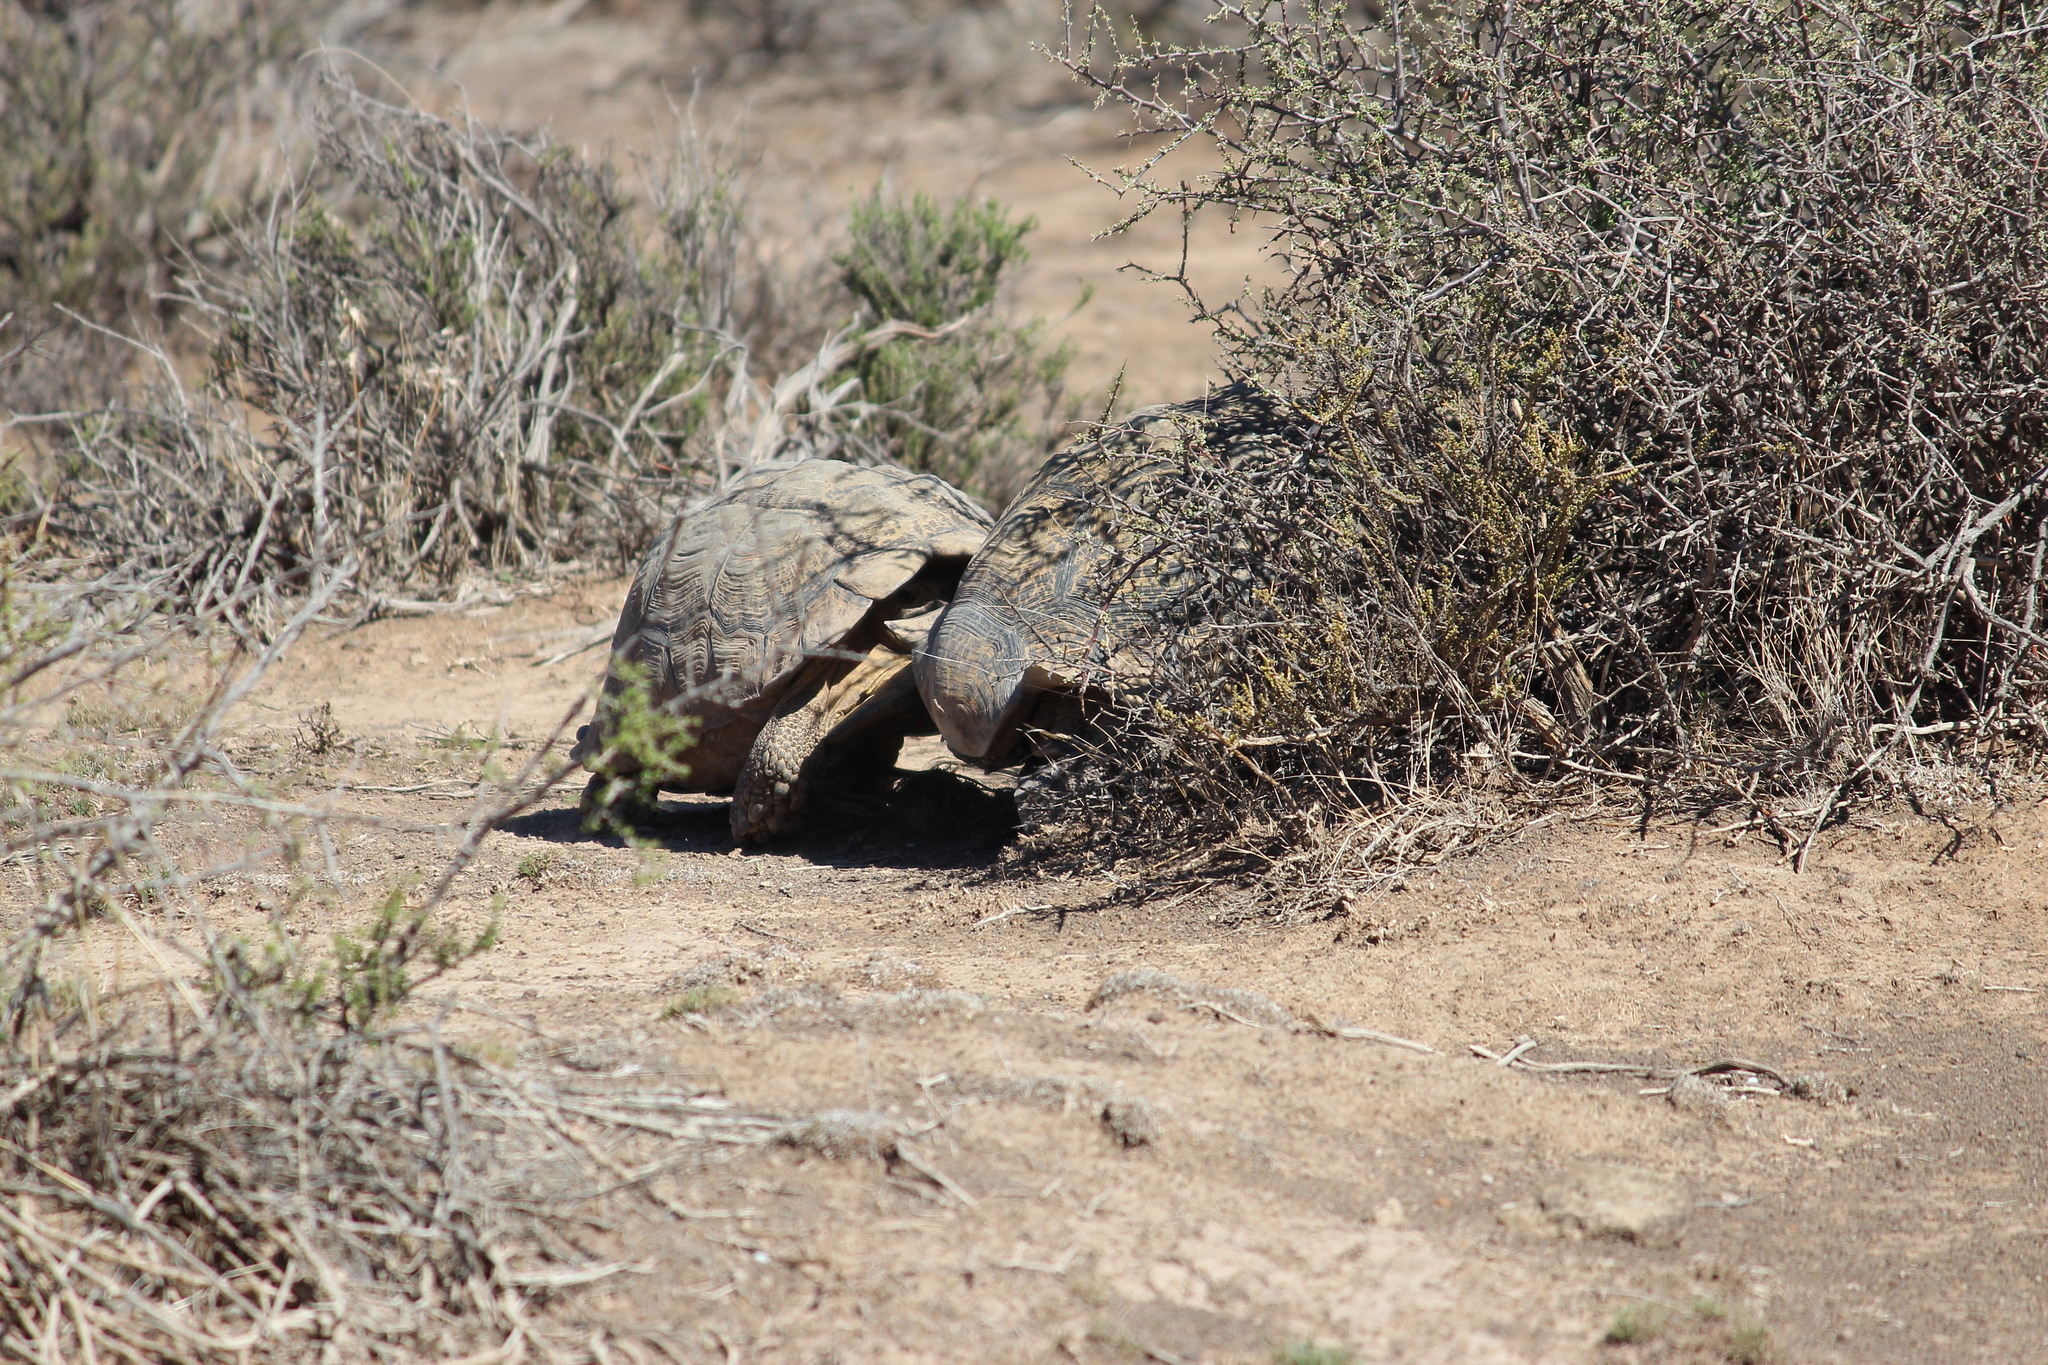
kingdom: Animalia
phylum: Chordata
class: Testudines
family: Testudinidae
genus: Stigmochelys
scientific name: Stigmochelys pardalis
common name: Leopard tortoise
